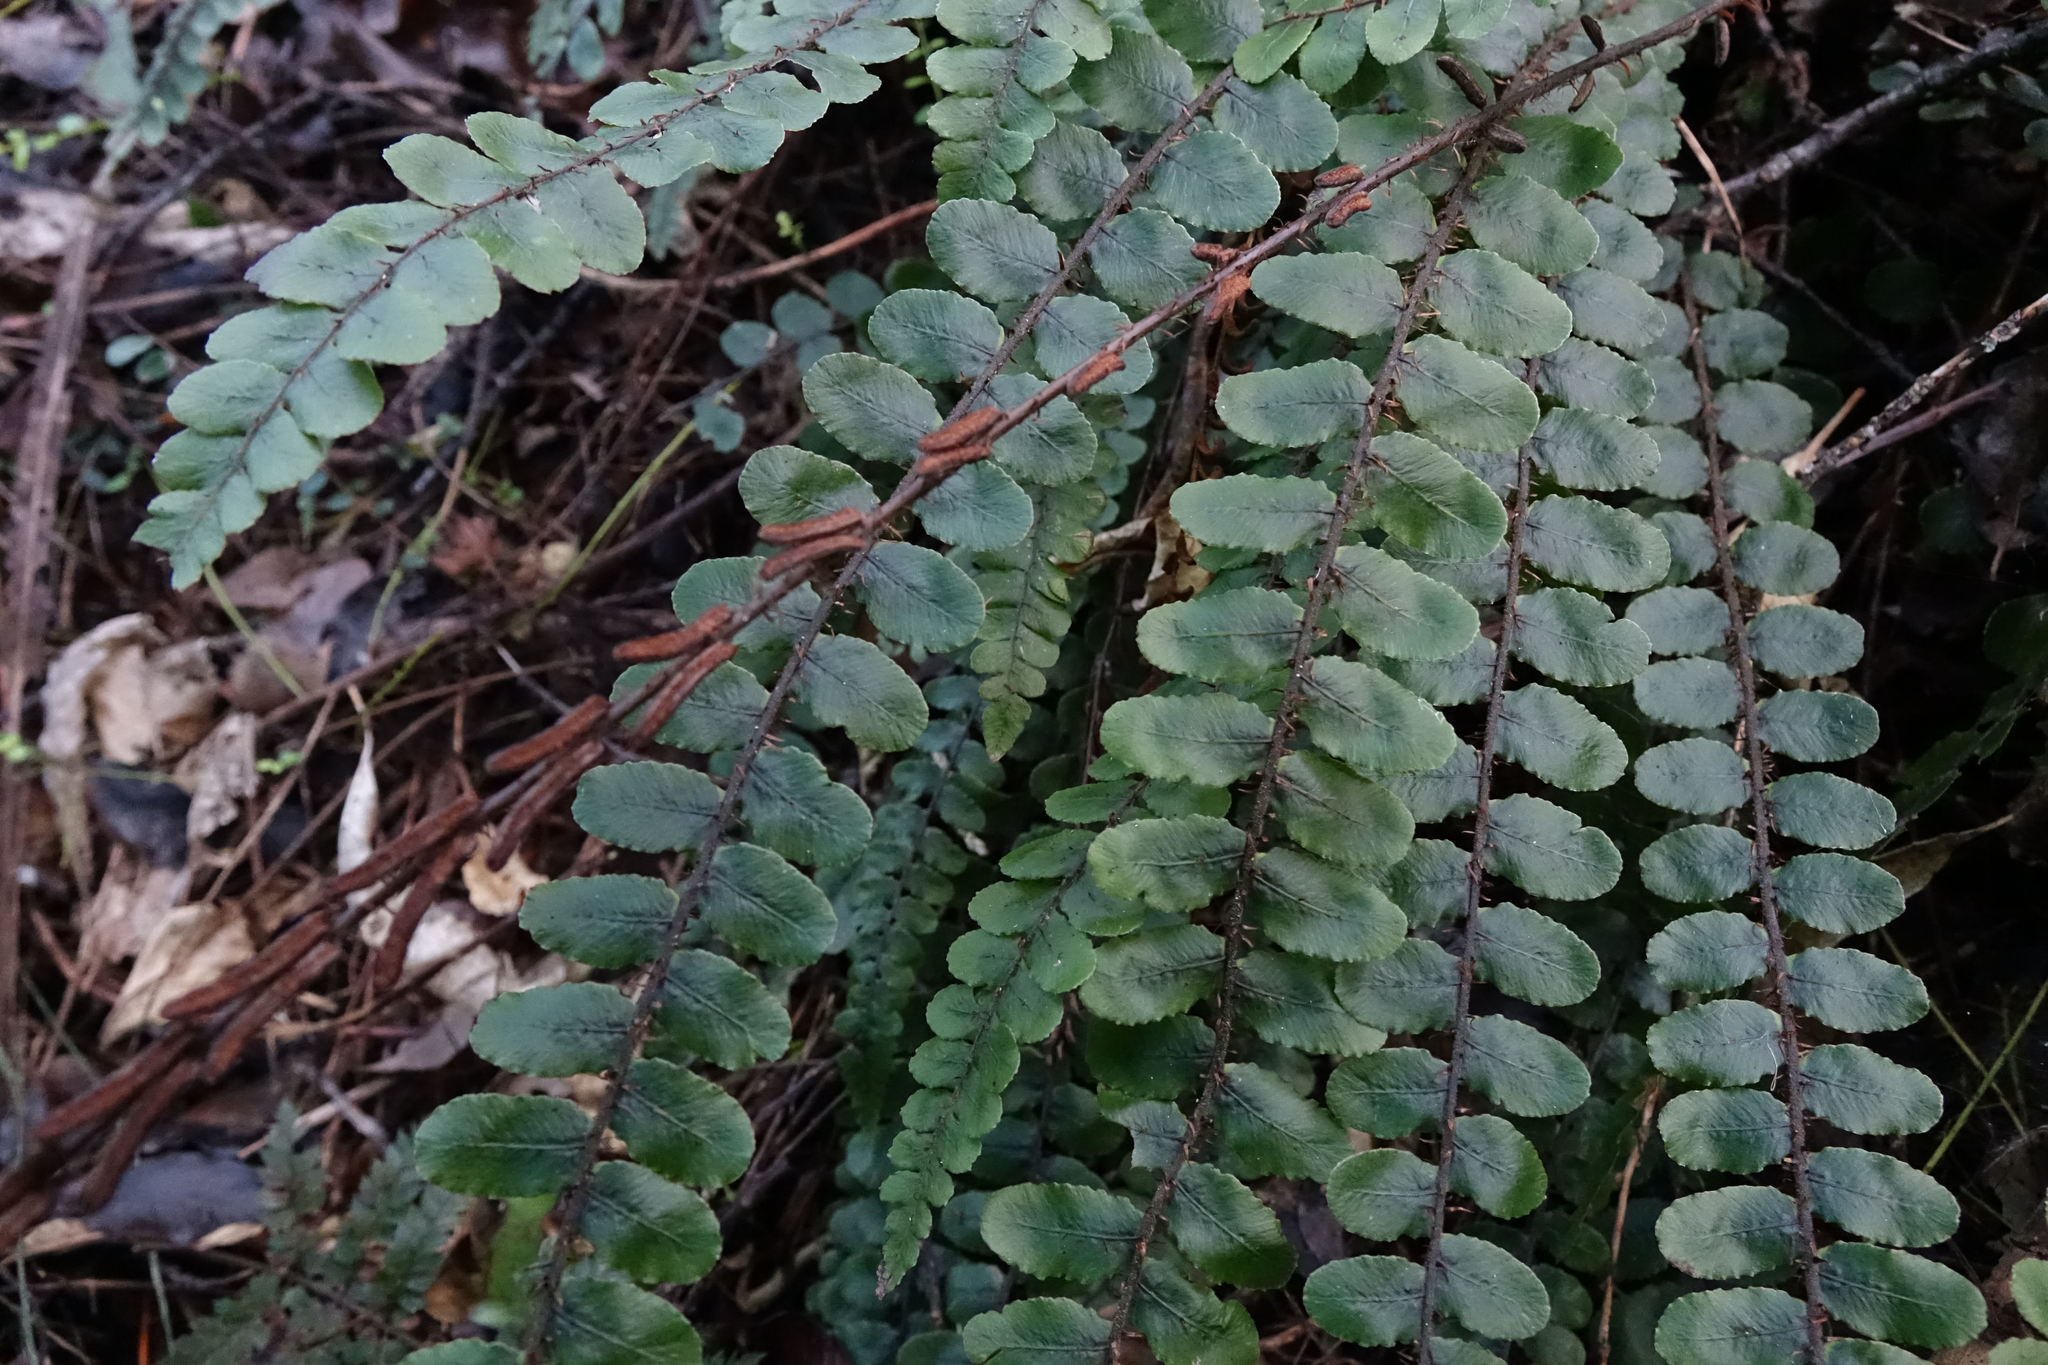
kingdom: Plantae
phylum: Tracheophyta
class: Polypodiopsida
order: Polypodiales
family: Blechnaceae
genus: Cranfillia
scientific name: Cranfillia fluviatilis
